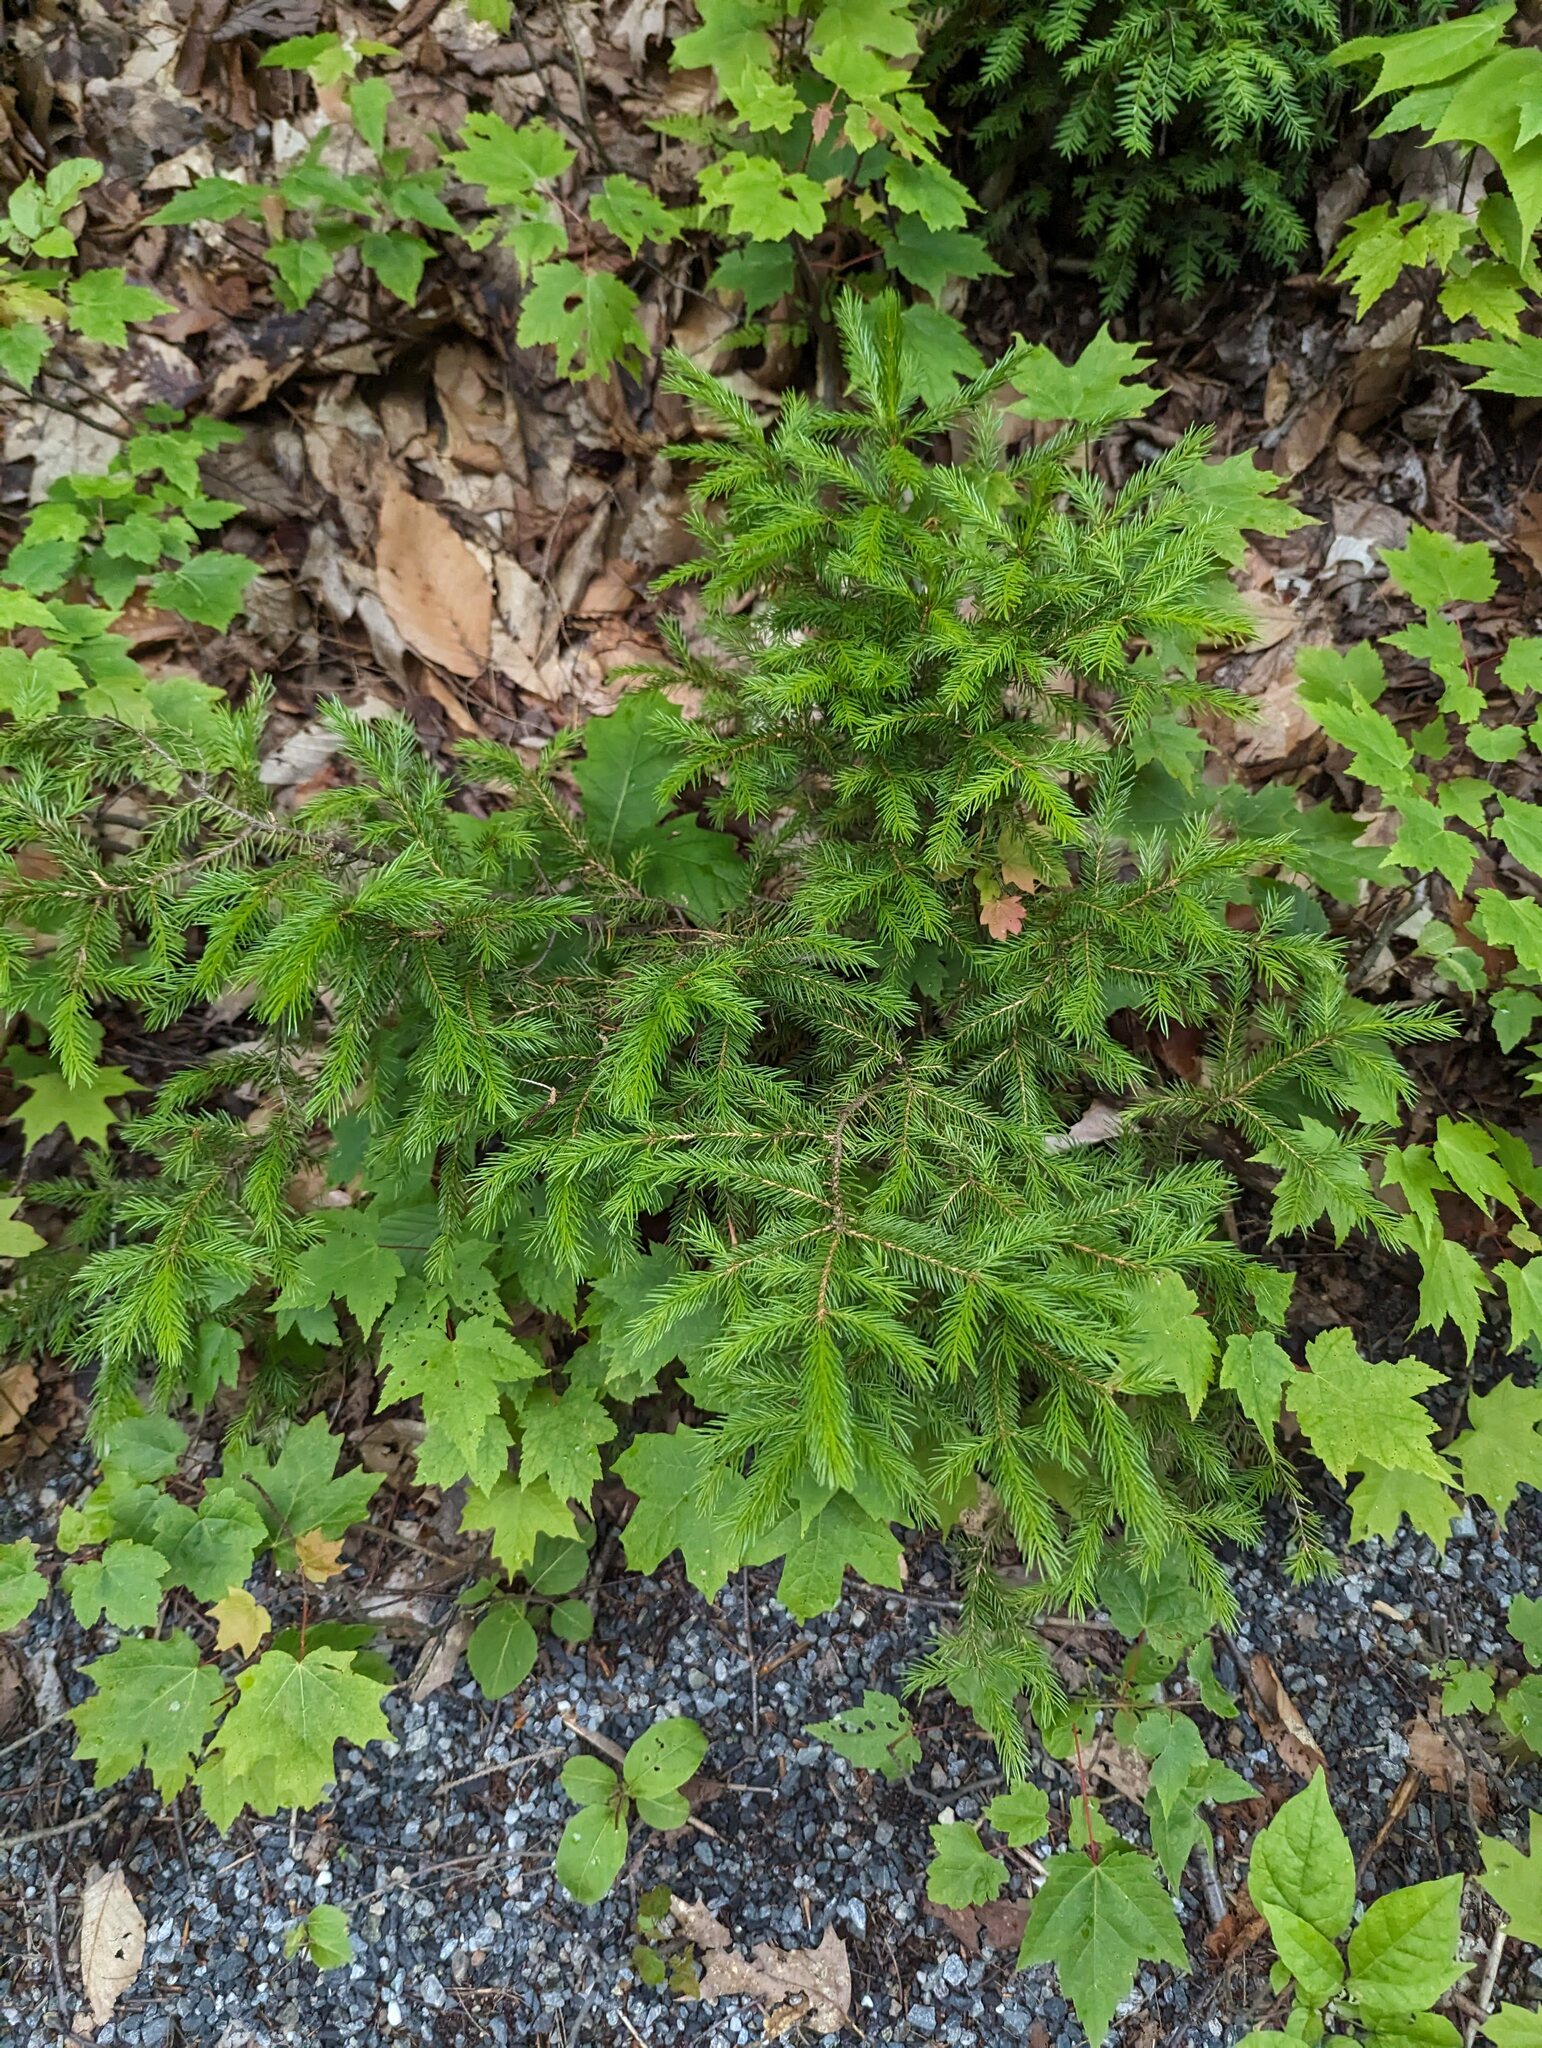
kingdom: Plantae
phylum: Tracheophyta
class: Pinopsida
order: Pinales
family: Pinaceae
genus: Picea
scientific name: Picea rubens
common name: Red spruce
